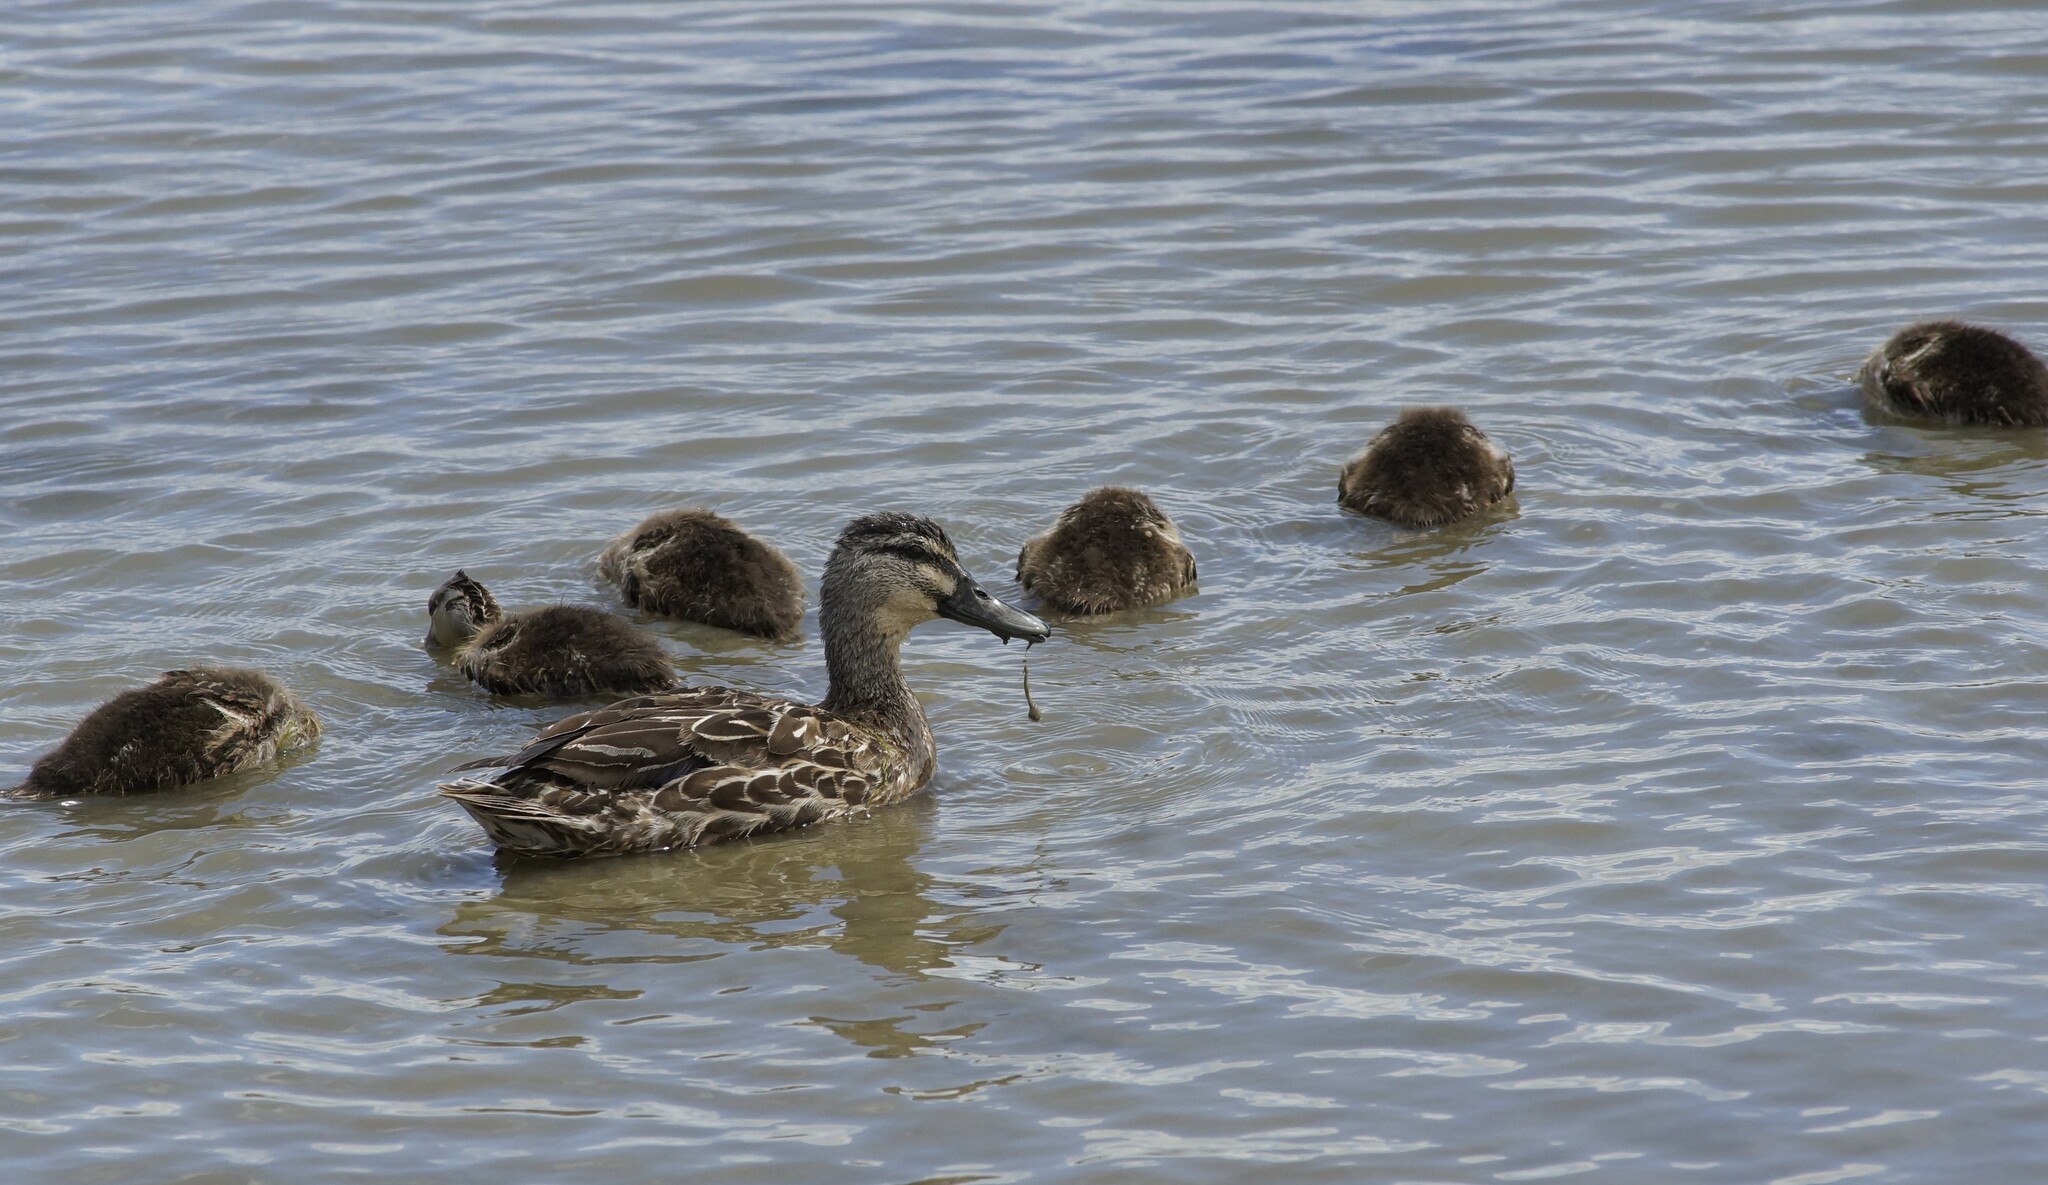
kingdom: Animalia
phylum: Chordata
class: Aves
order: Anseriformes
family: Anatidae
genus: Anas
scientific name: Anas
